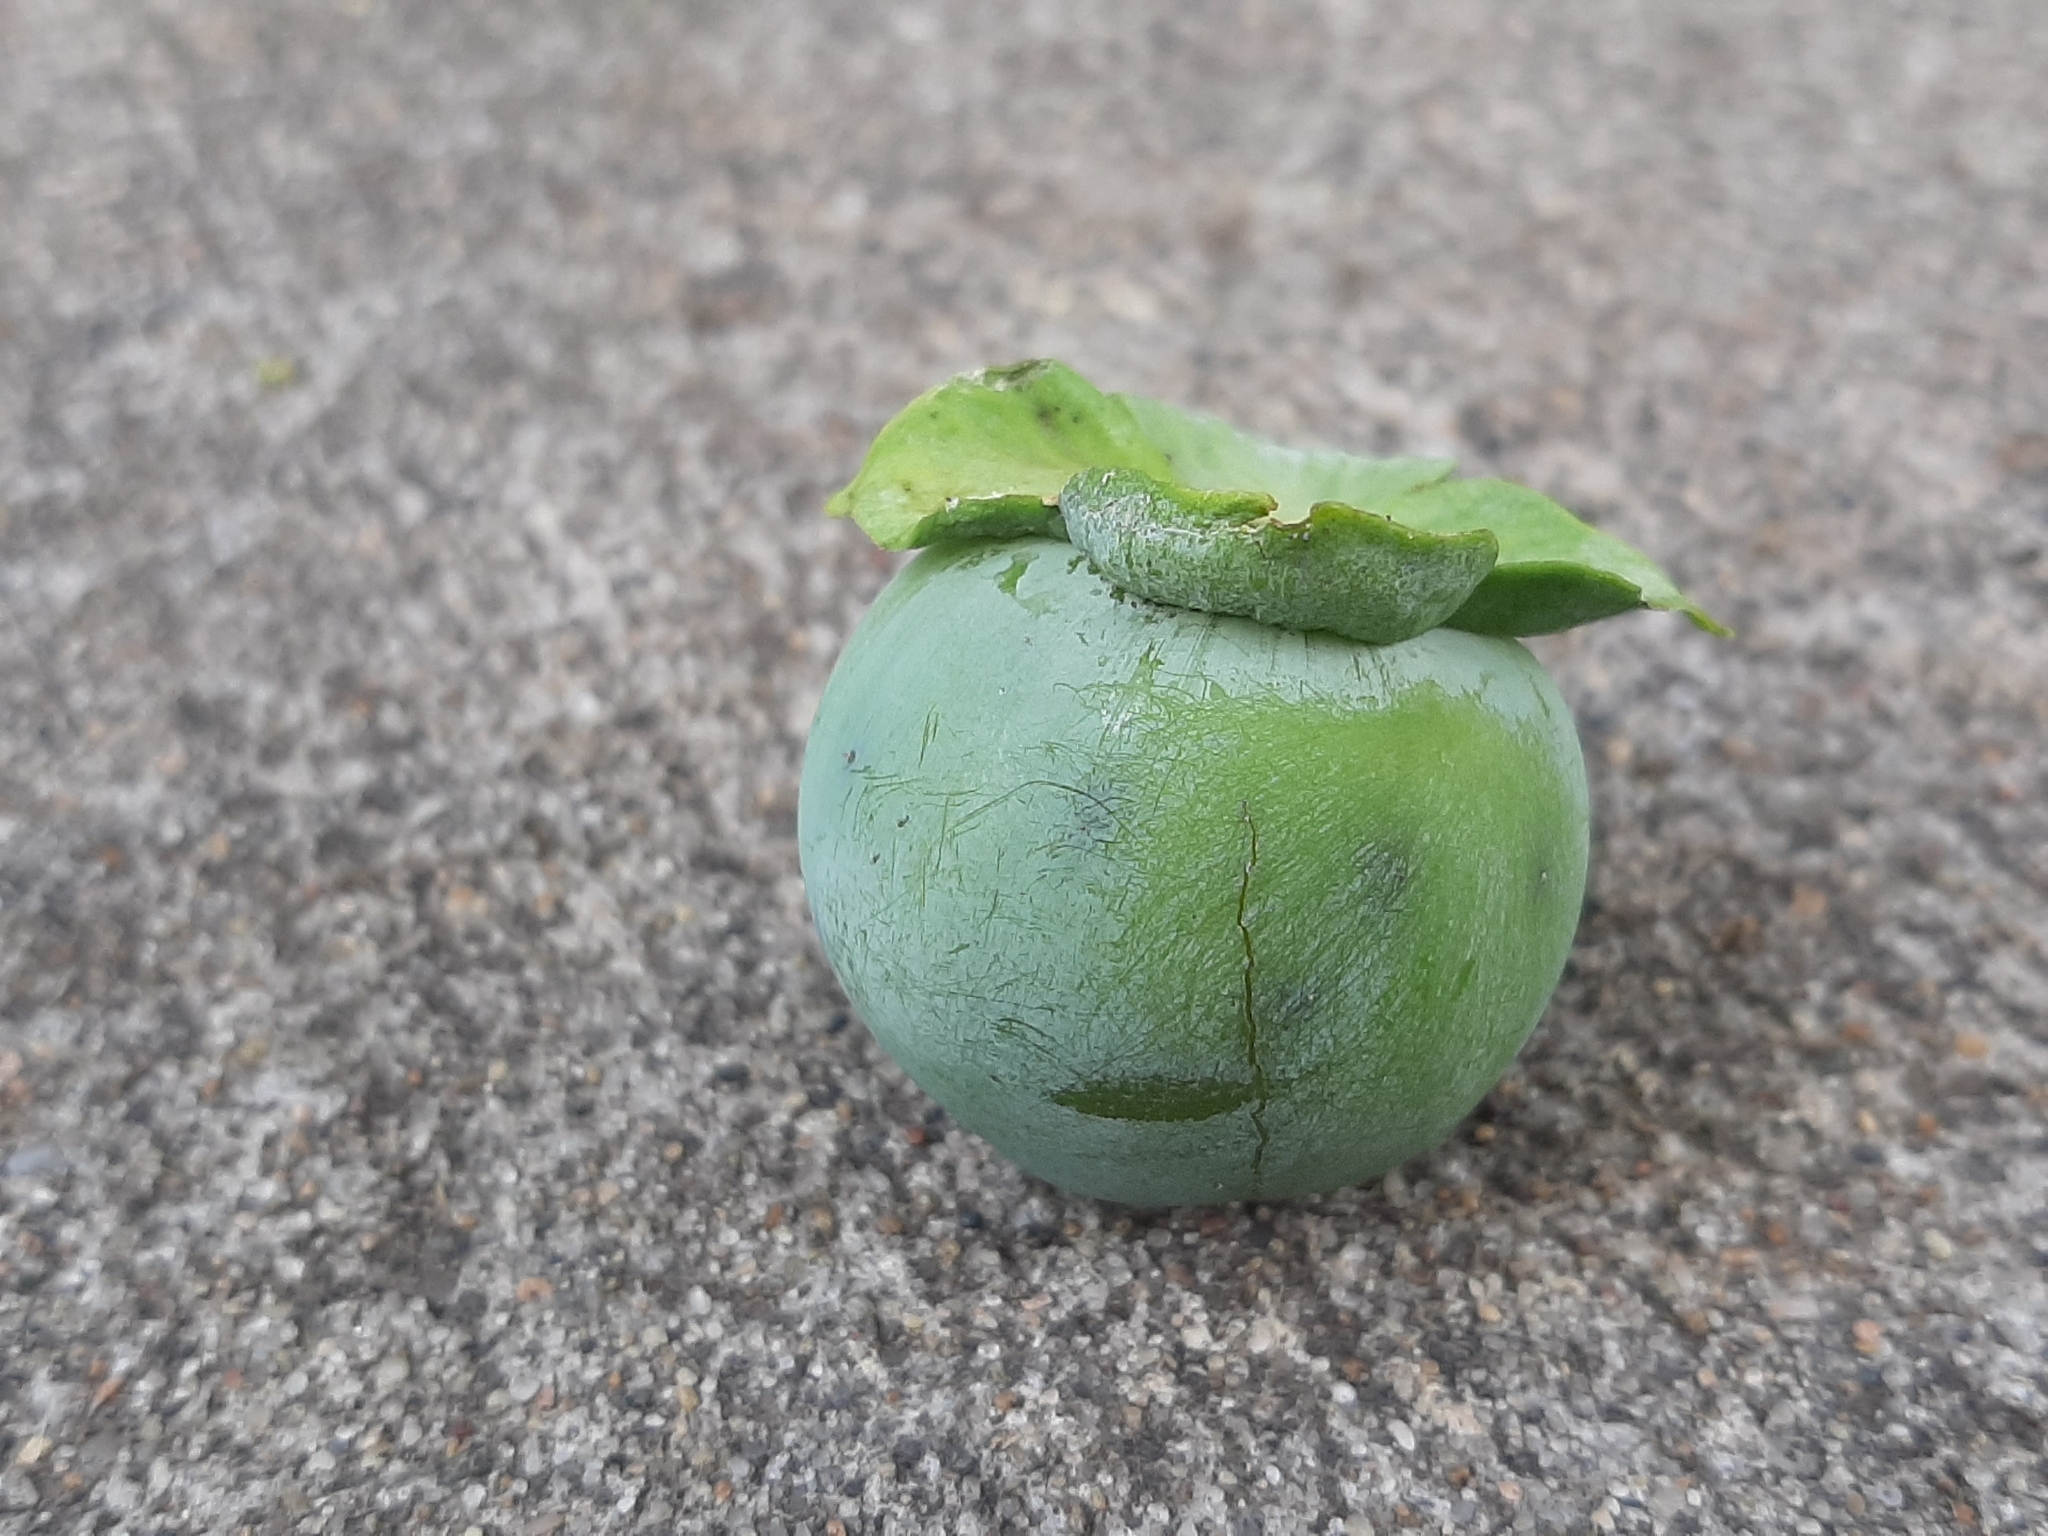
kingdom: Plantae
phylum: Tracheophyta
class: Magnoliopsida
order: Ericales
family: Ebenaceae
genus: Diospyros
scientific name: Diospyros virginiana
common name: Persimmon
